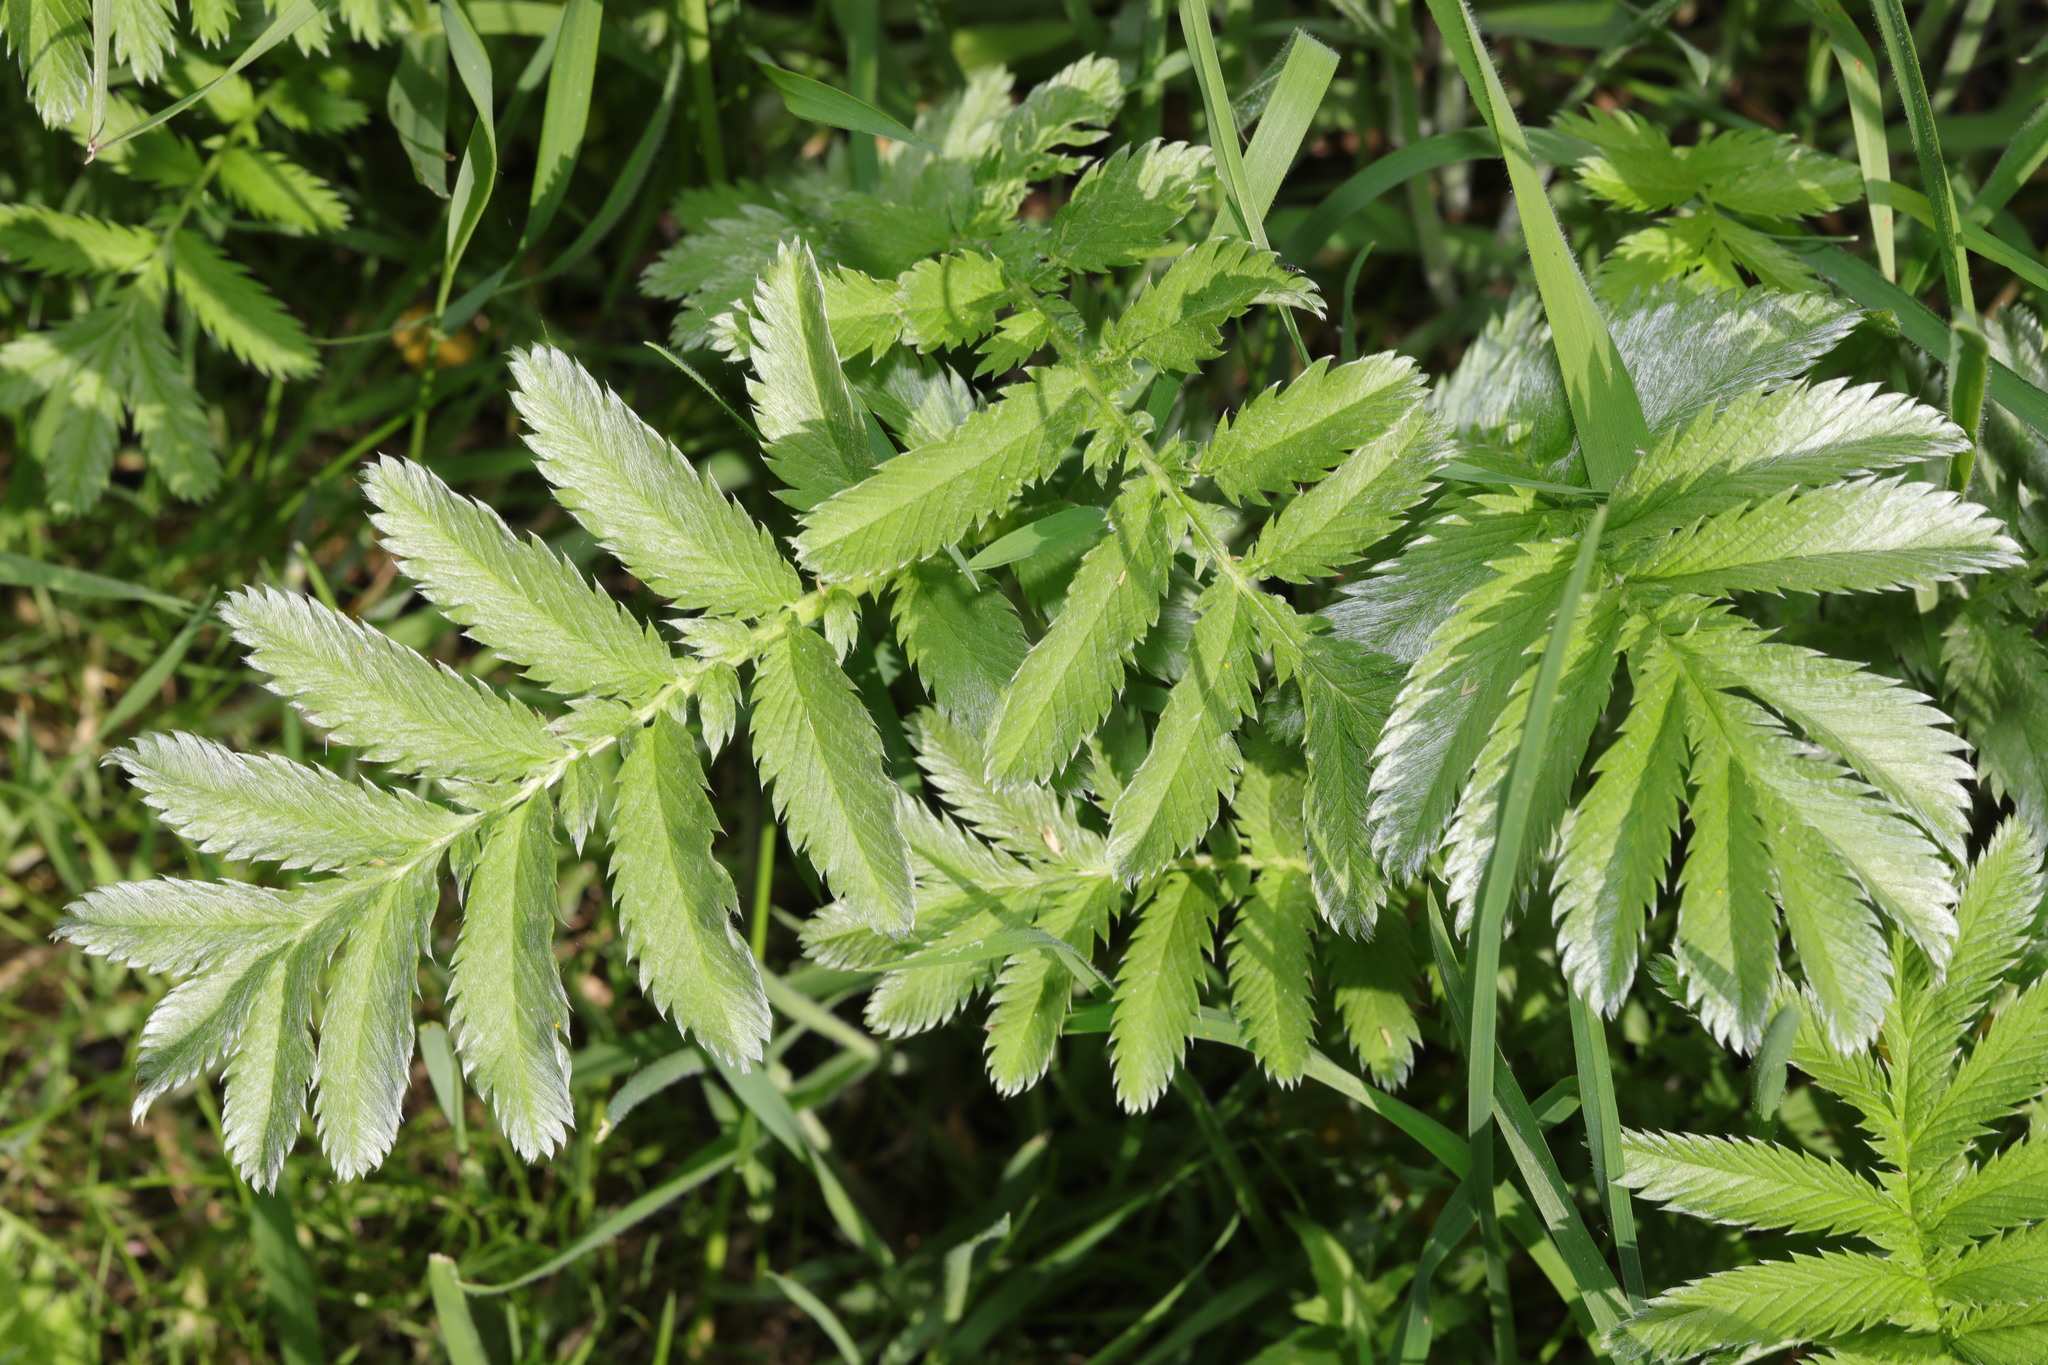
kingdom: Plantae
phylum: Tracheophyta
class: Magnoliopsida
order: Rosales
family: Rosaceae
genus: Argentina
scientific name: Argentina anserina
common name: Common silverweed
